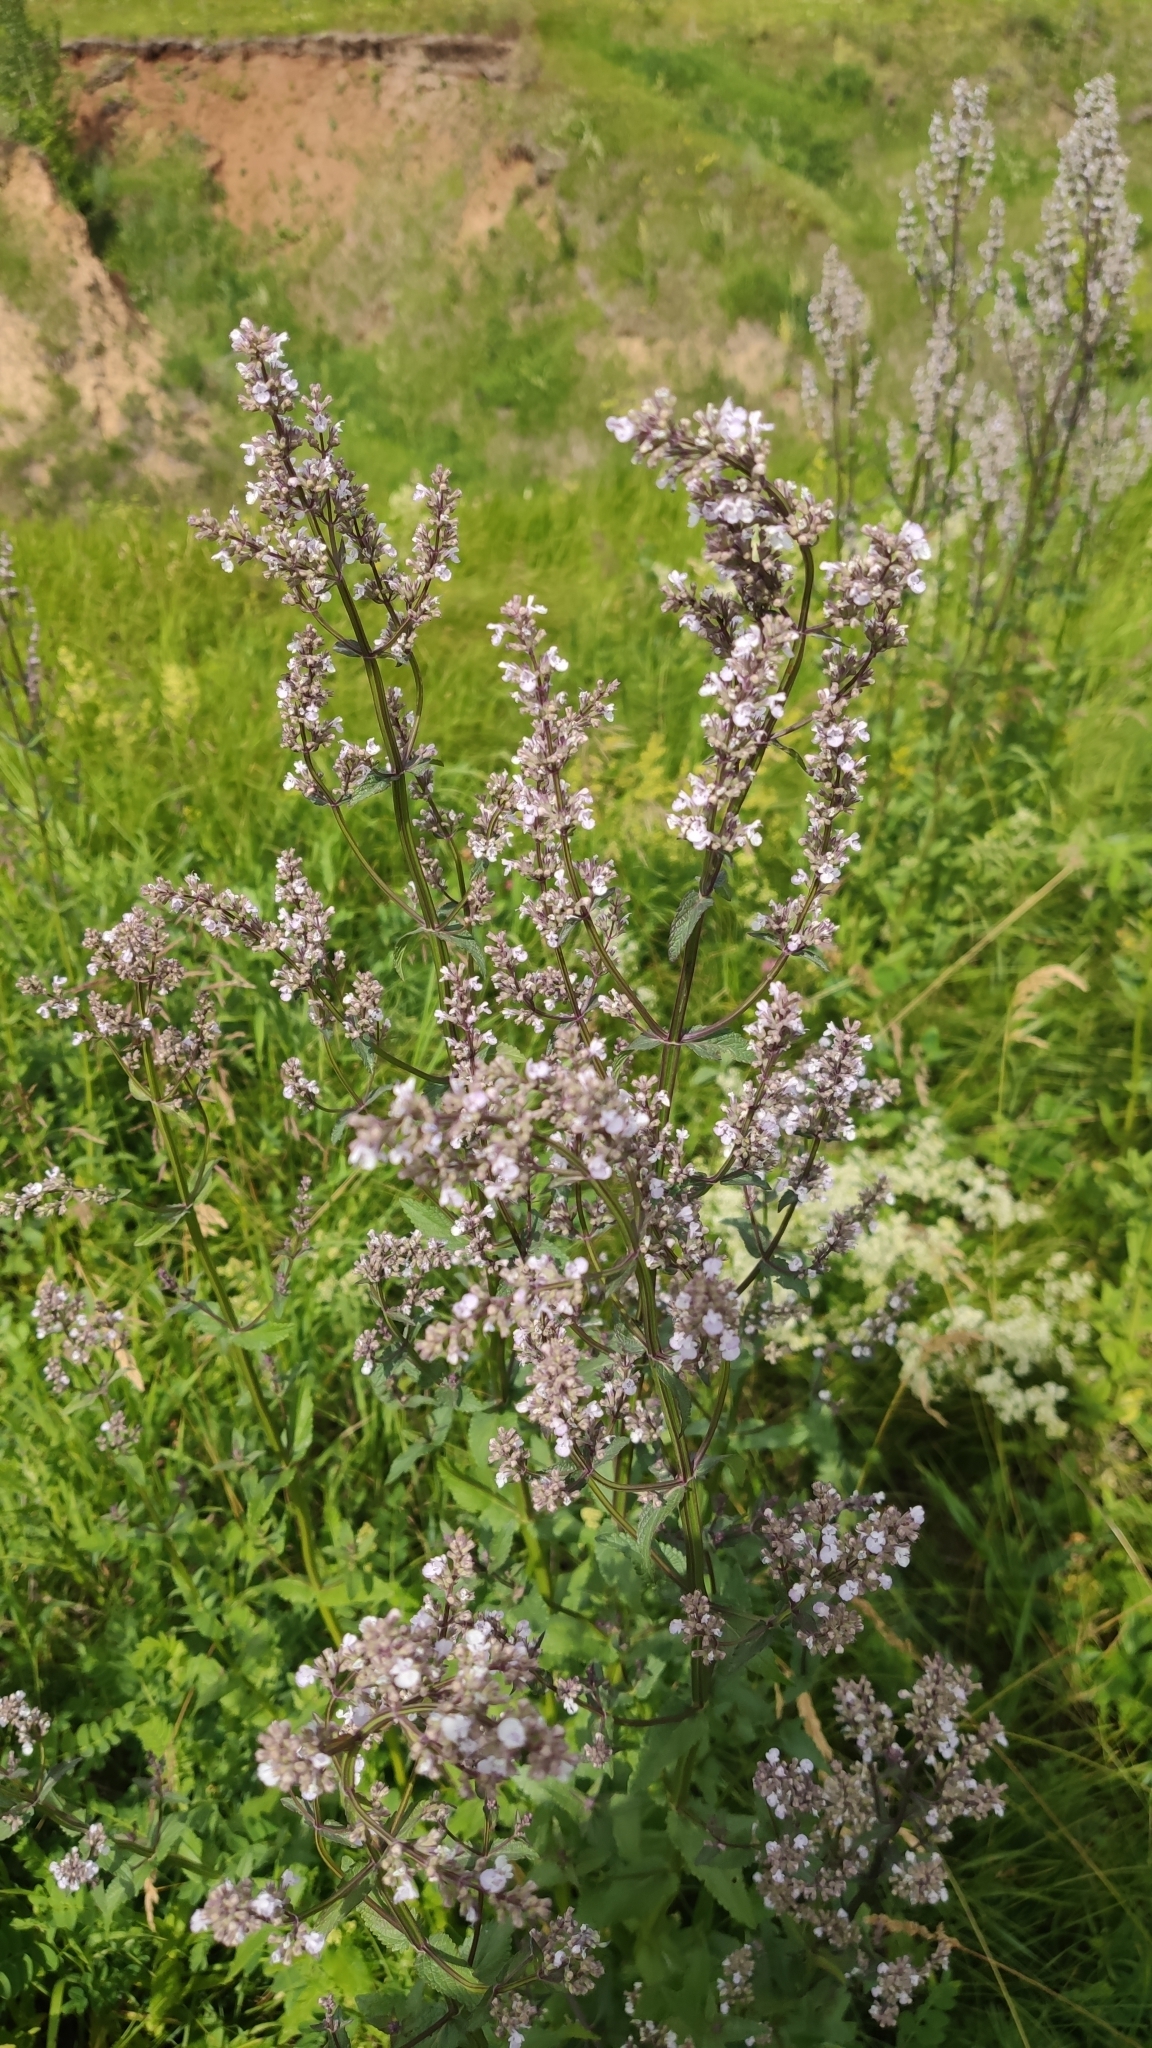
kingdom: Plantae
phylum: Tracheophyta
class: Magnoliopsida
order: Lamiales
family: Lamiaceae
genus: Nepeta
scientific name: Nepeta nuda
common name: Hairless catmint
